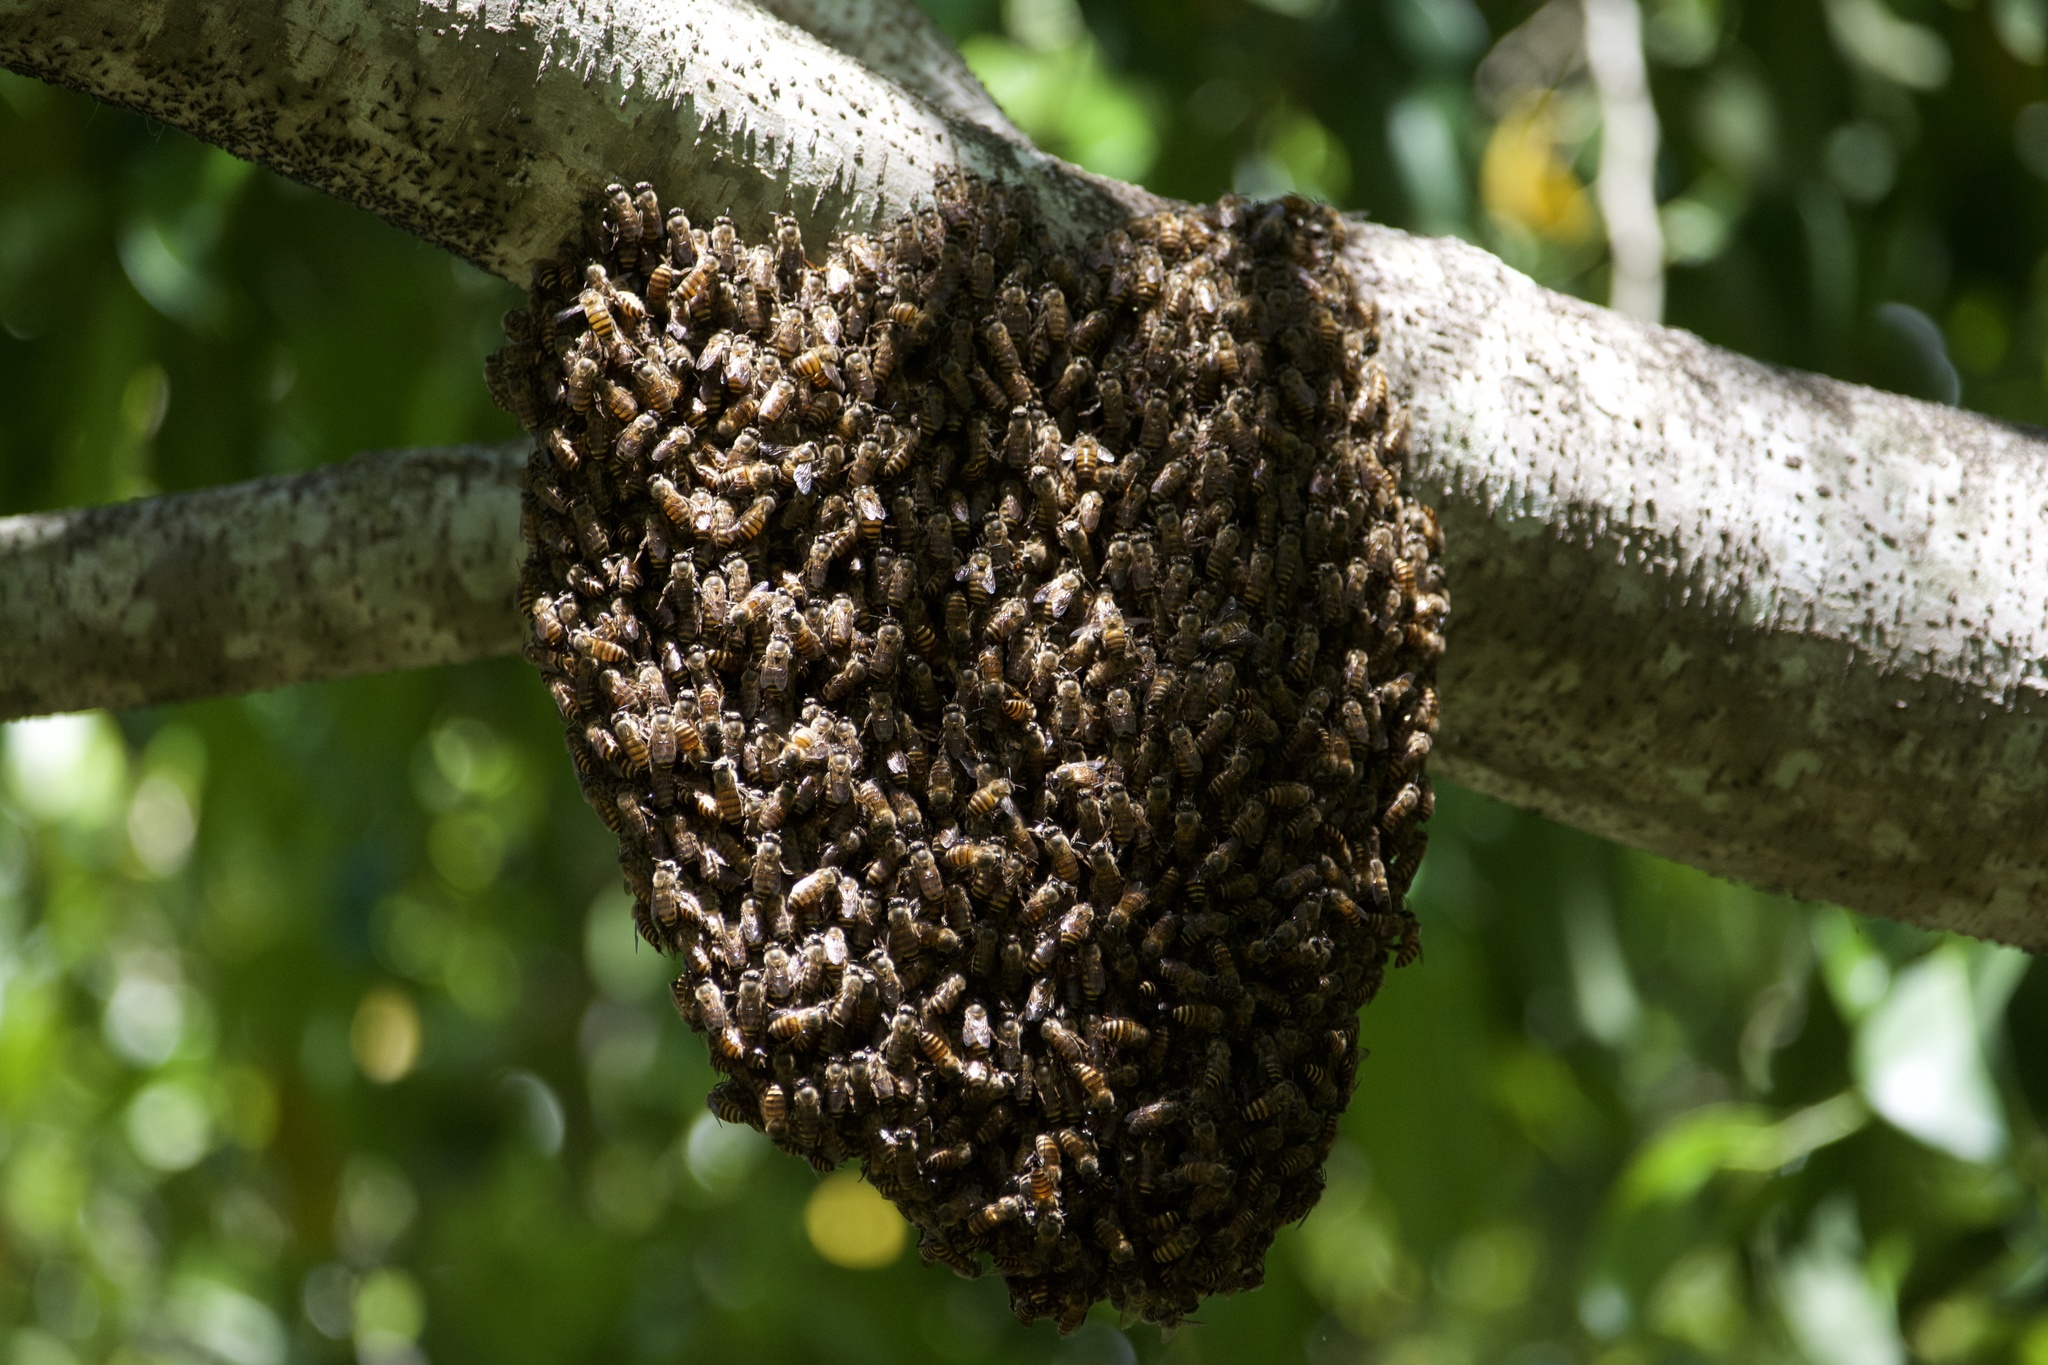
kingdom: Animalia
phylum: Arthropoda
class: Insecta
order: Hymenoptera
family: Apidae
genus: Apis
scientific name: Apis mellifera
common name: Honey bee
